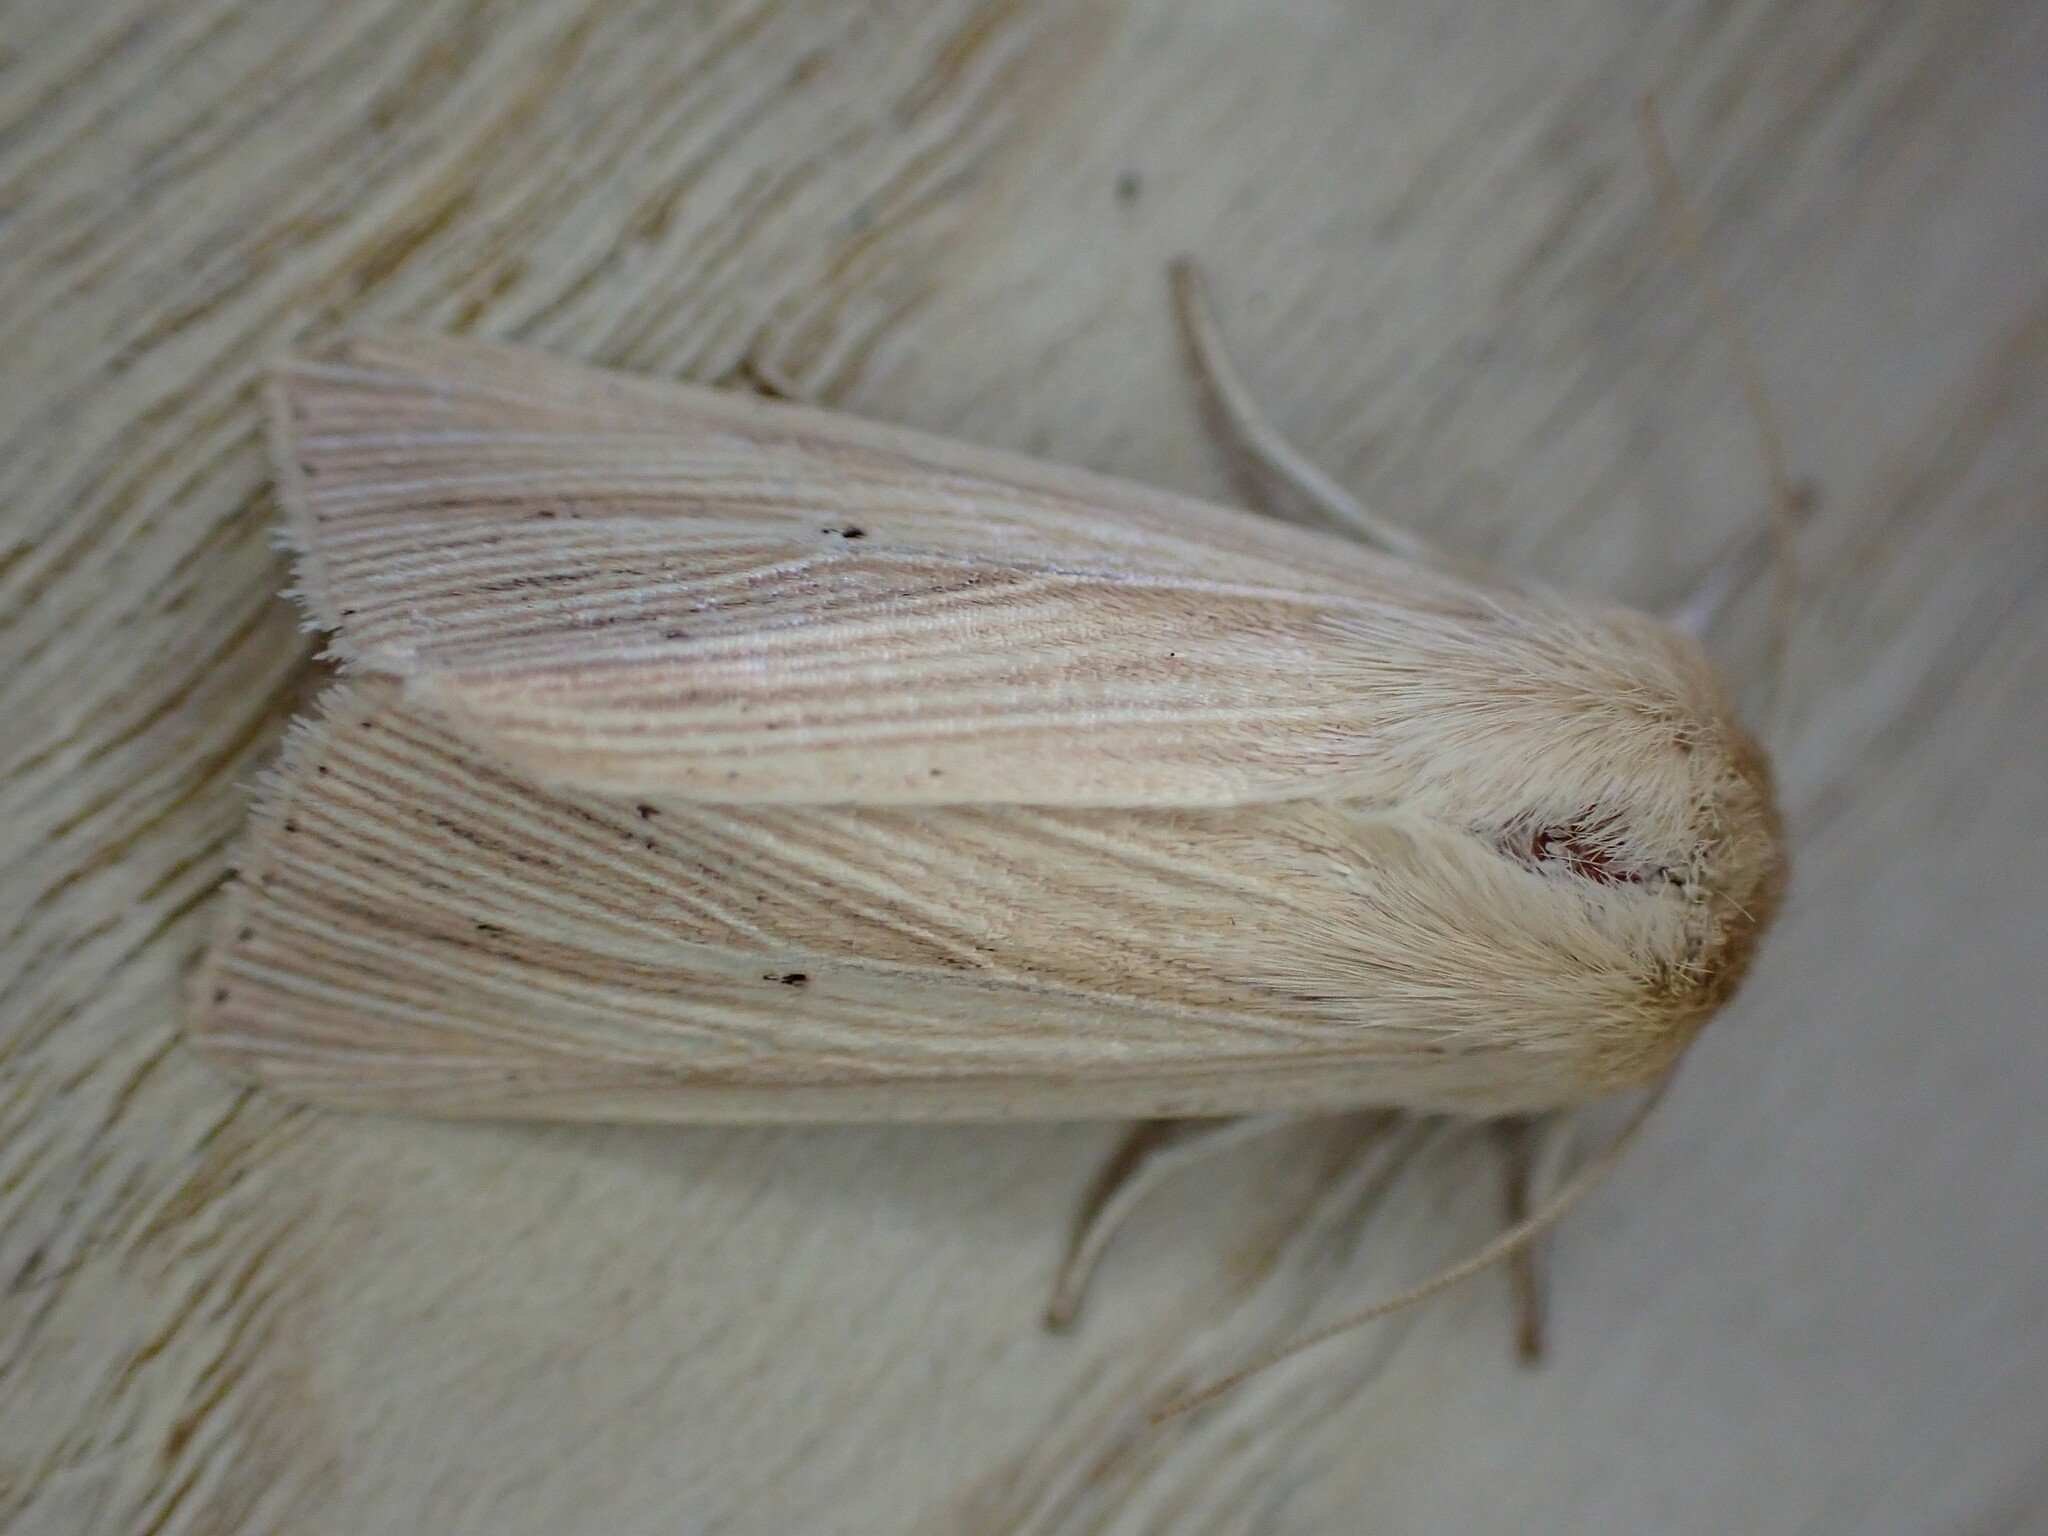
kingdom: Animalia
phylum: Arthropoda
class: Insecta
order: Lepidoptera
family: Noctuidae
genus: Mythimna
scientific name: Mythimna pallens
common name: Common wainscot
